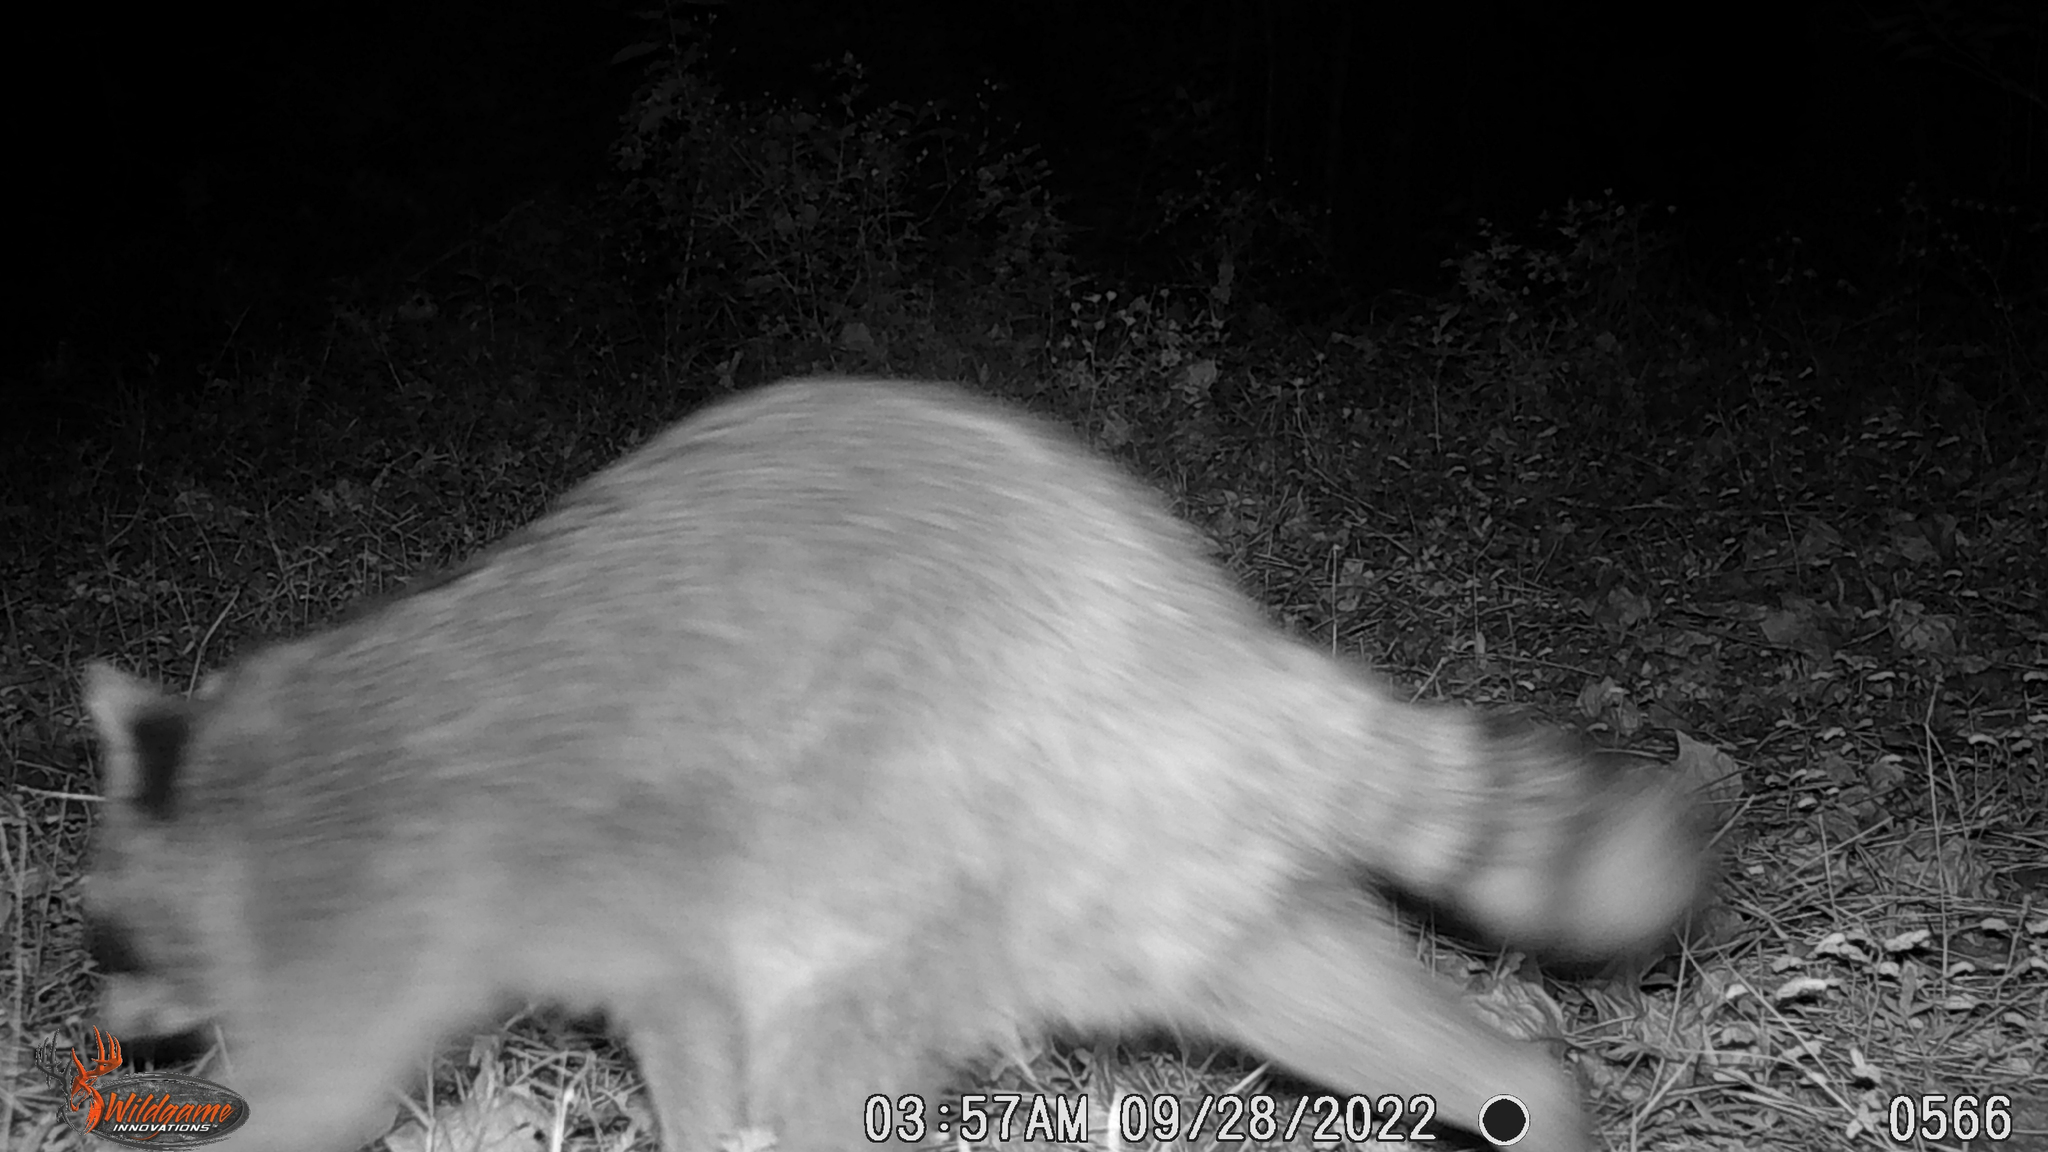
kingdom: Animalia
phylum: Chordata
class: Mammalia
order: Carnivora
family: Procyonidae
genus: Procyon
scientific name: Procyon lotor
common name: Raccoon
